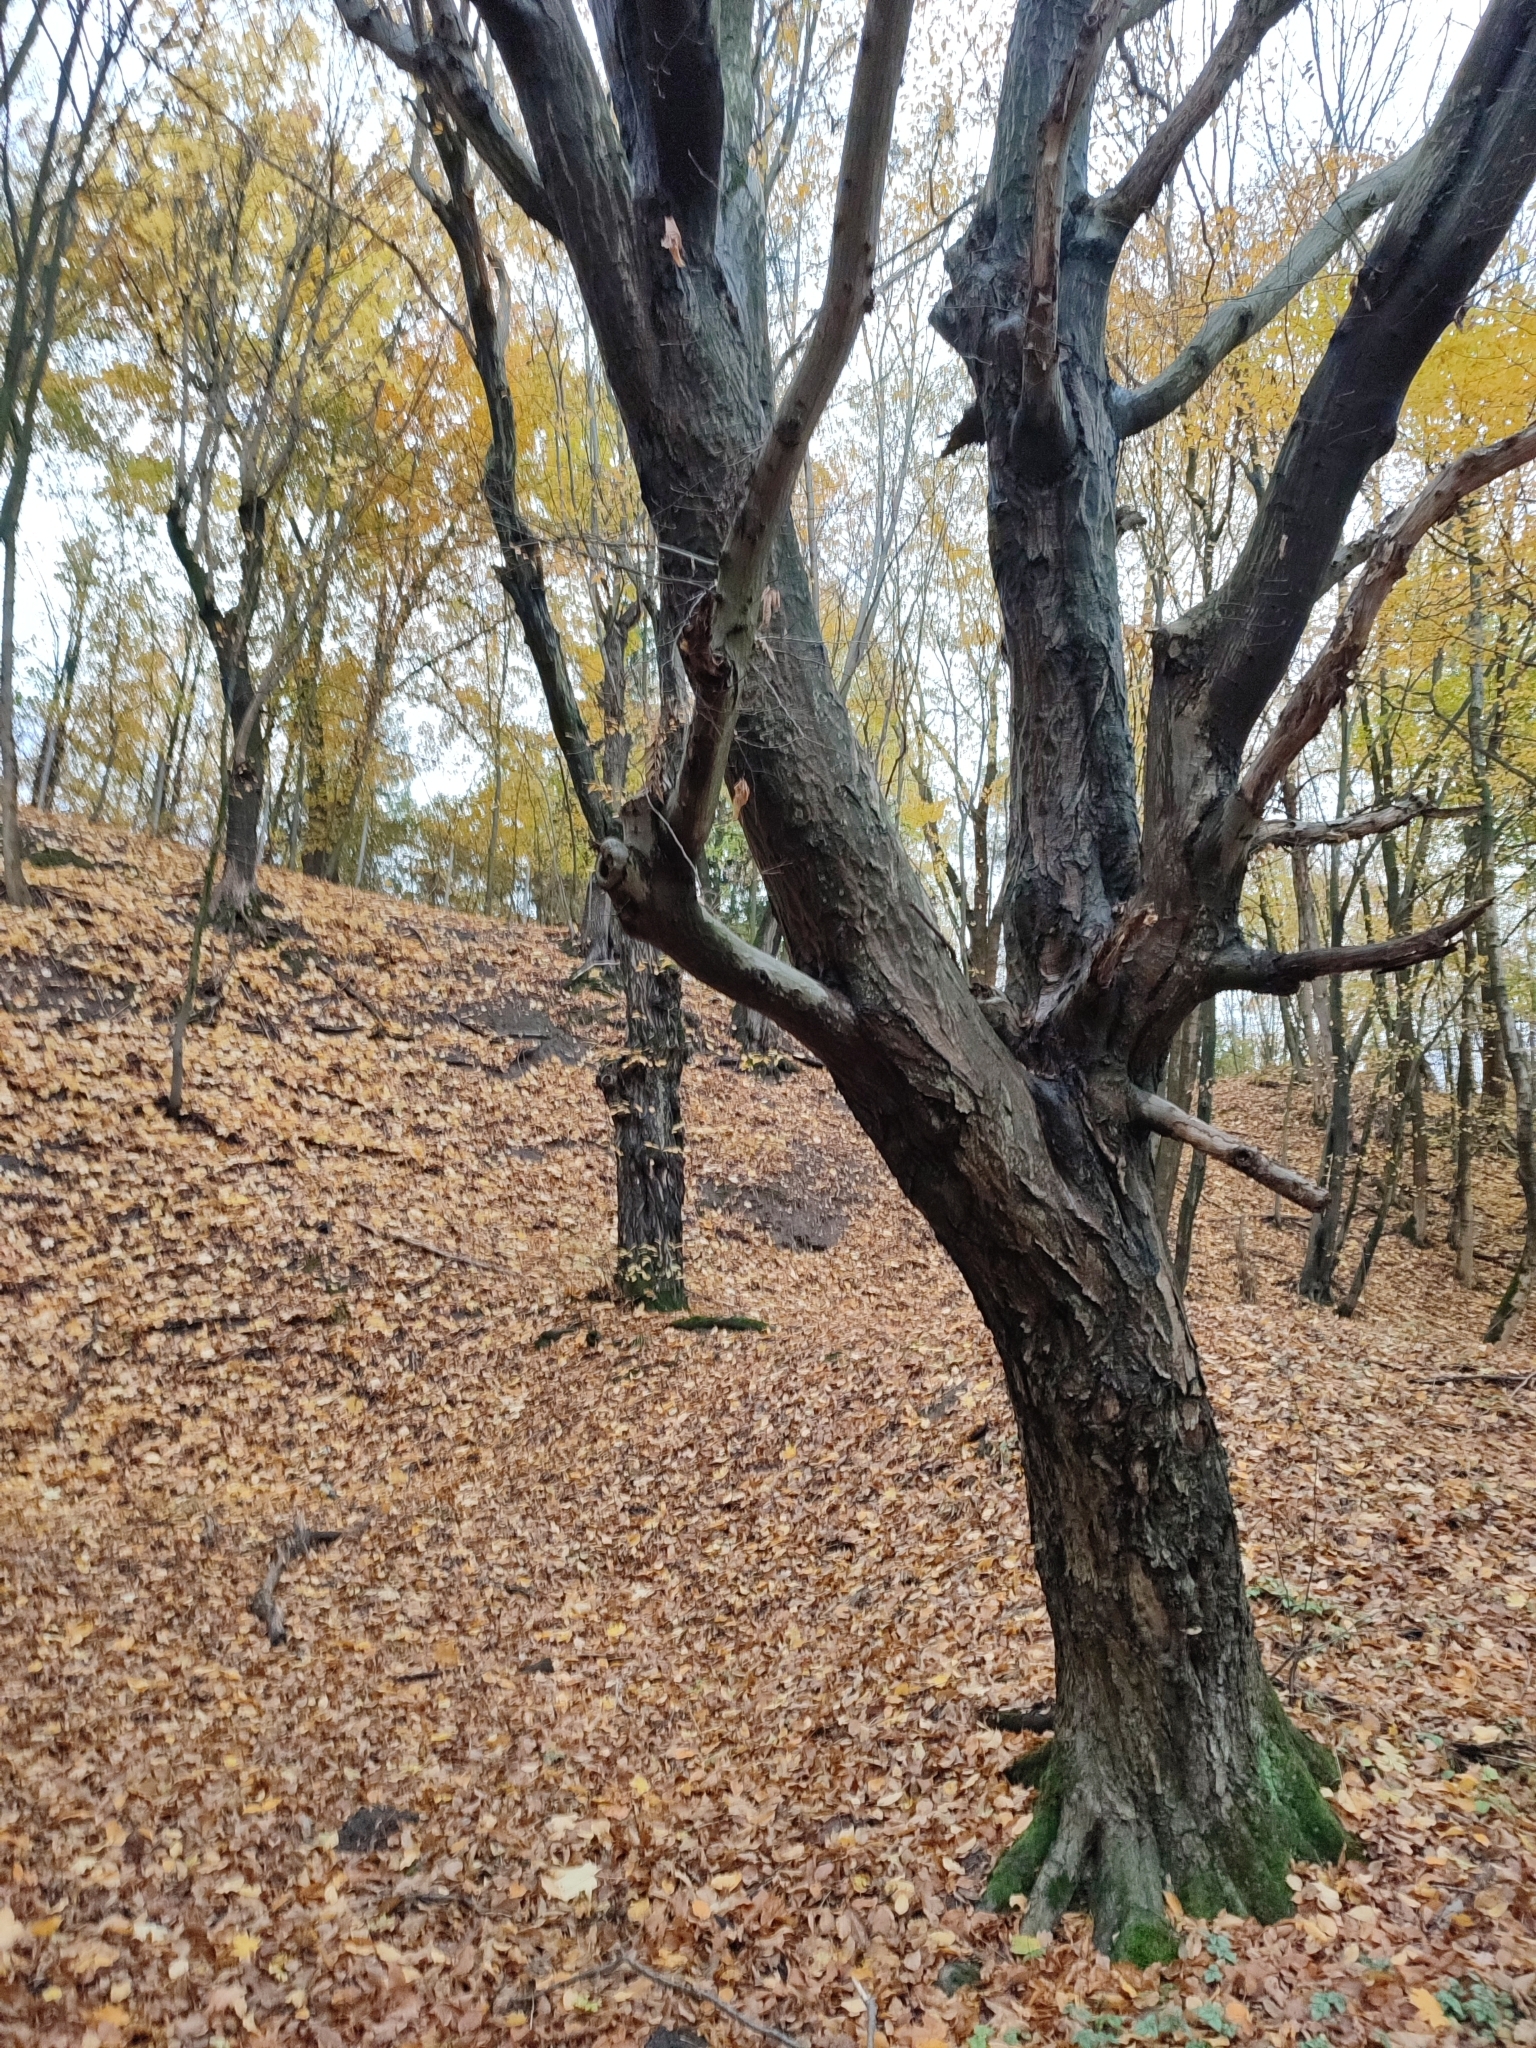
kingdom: Plantae
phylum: Tracheophyta
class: Magnoliopsida
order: Fagales
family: Betulaceae
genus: Carpinus
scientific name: Carpinus betulus
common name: Hornbeam
